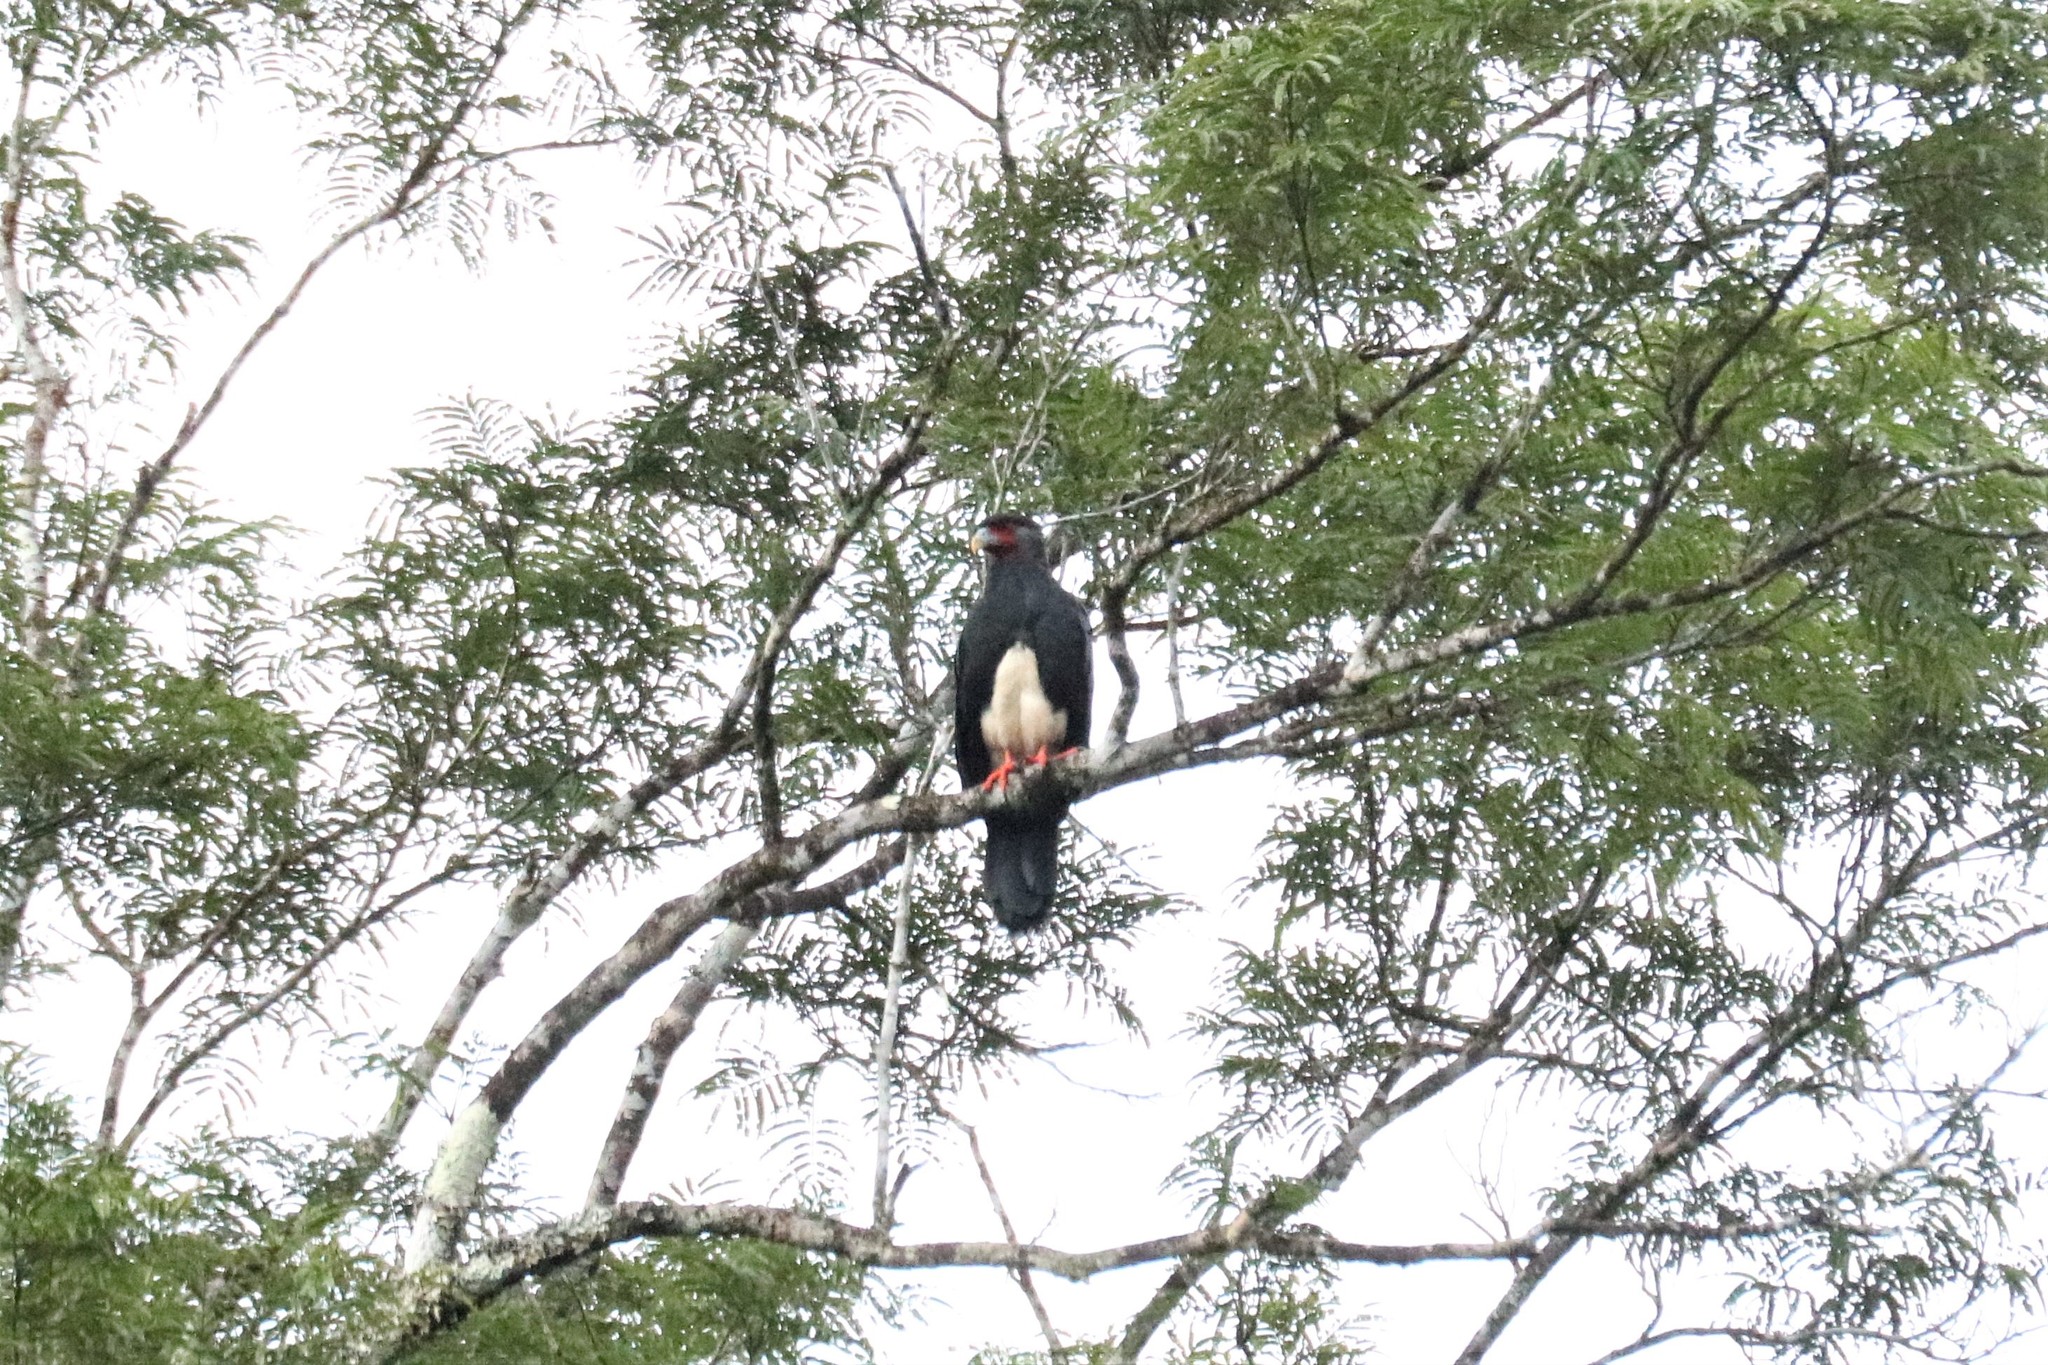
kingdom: Animalia
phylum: Chordata
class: Aves
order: Falconiformes
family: Falconidae
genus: Ibycter
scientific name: Ibycter americanus
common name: Red-throated caracara
